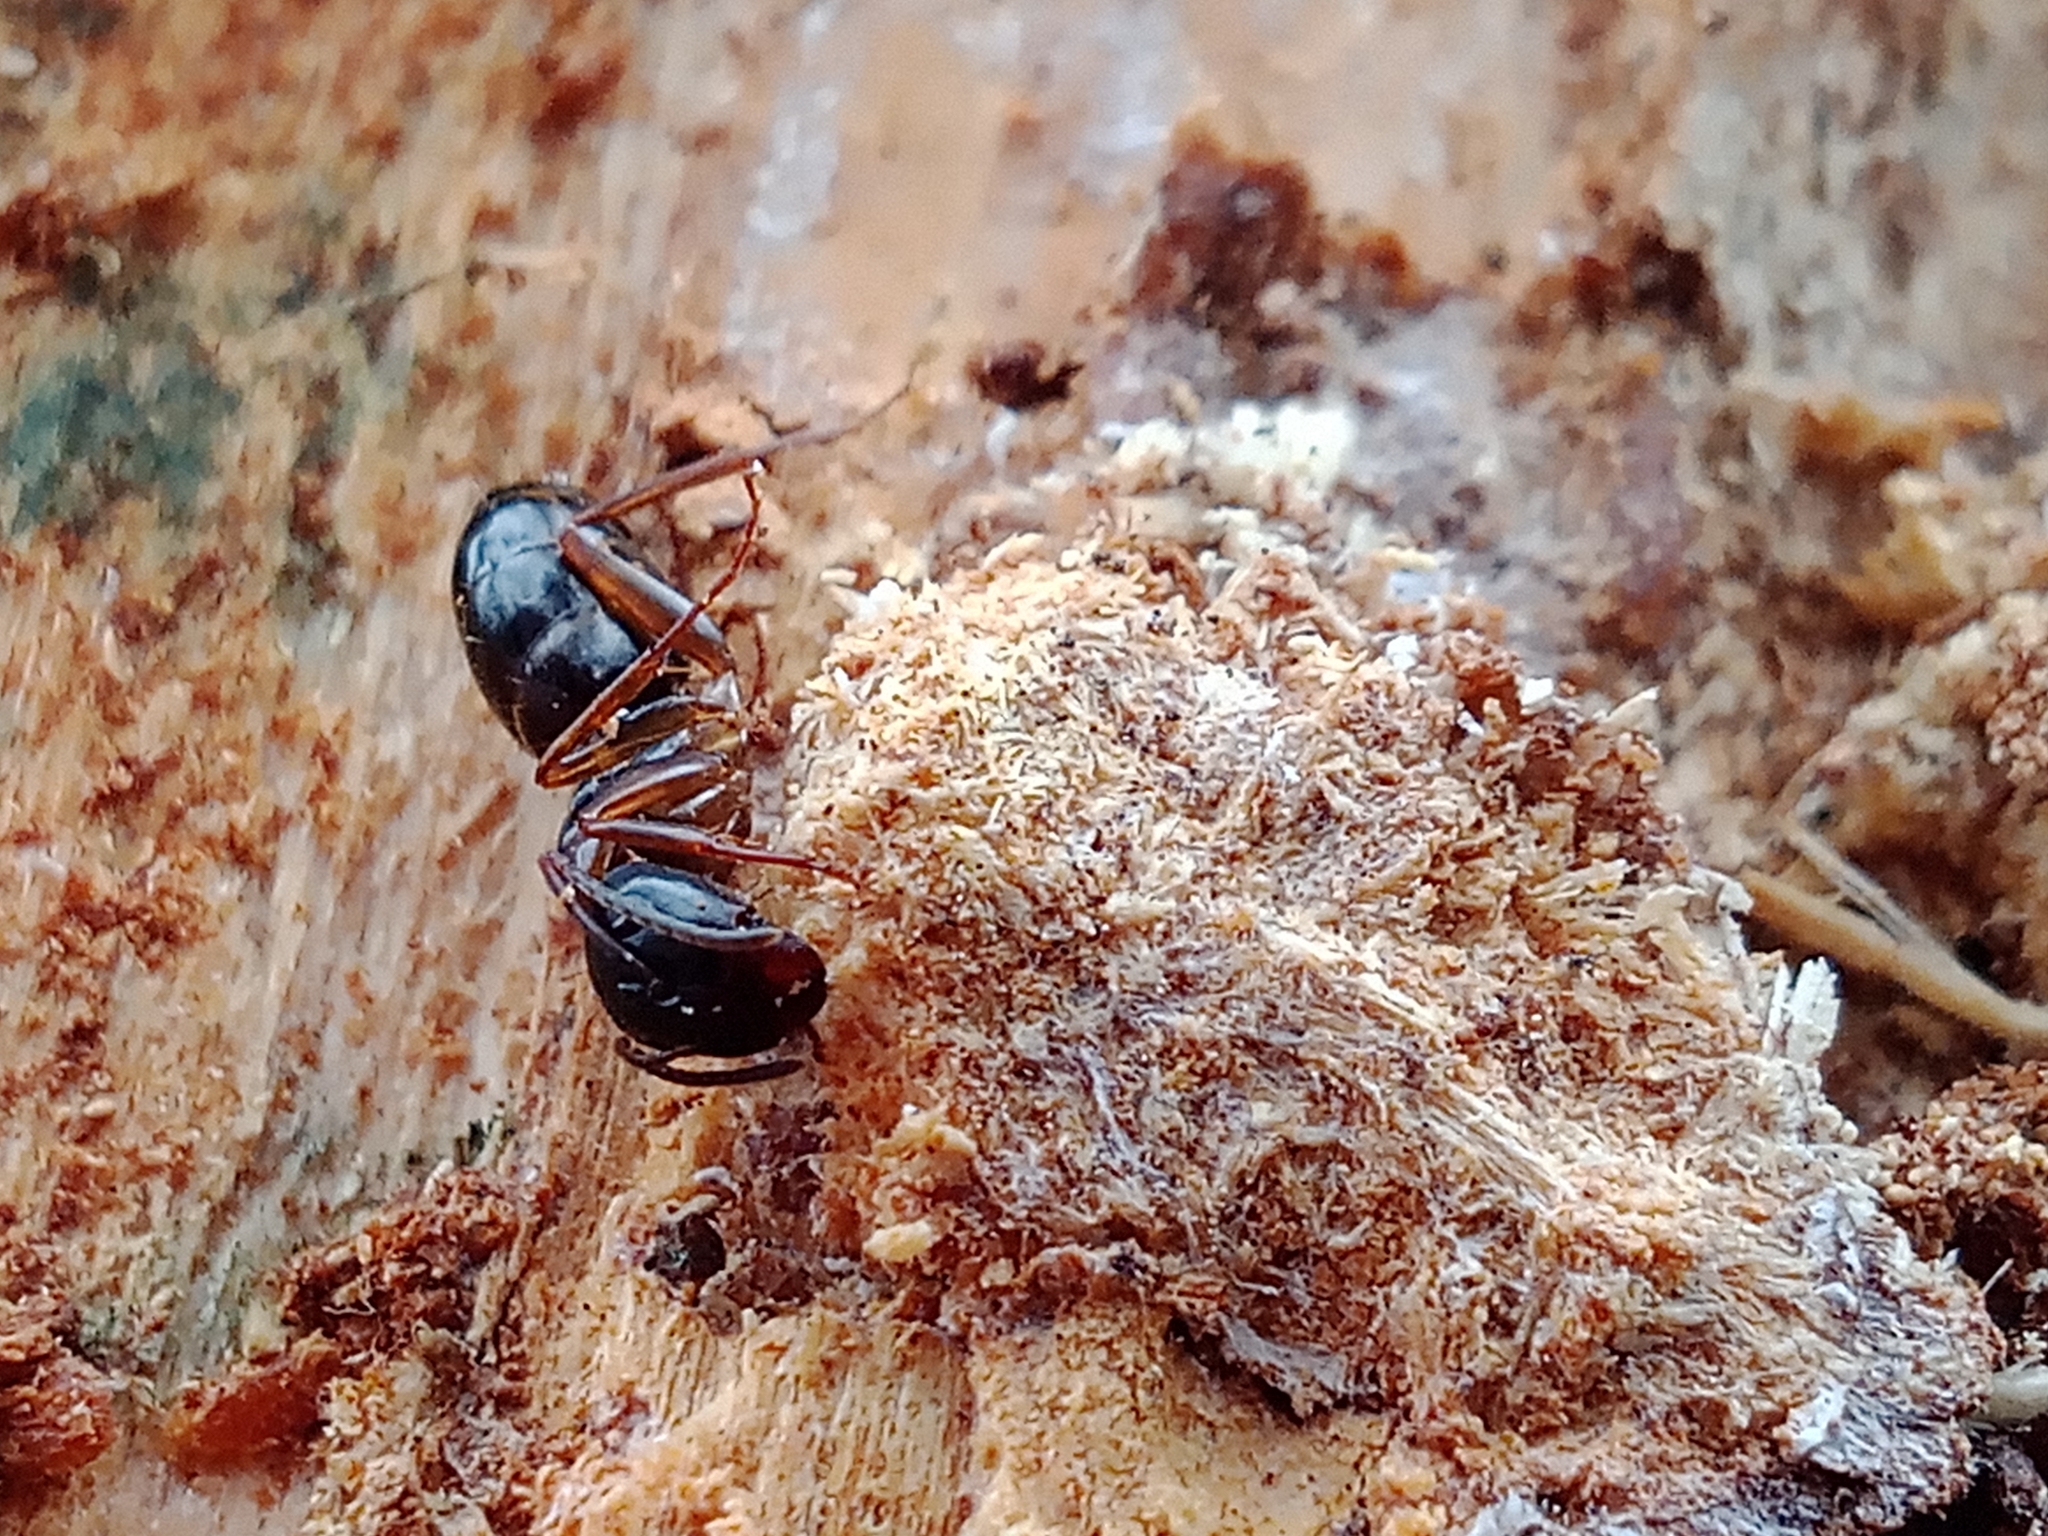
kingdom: Animalia
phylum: Arthropoda
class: Insecta
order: Hymenoptera
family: Formicidae
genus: Camponotus
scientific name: Camponotus fallax
